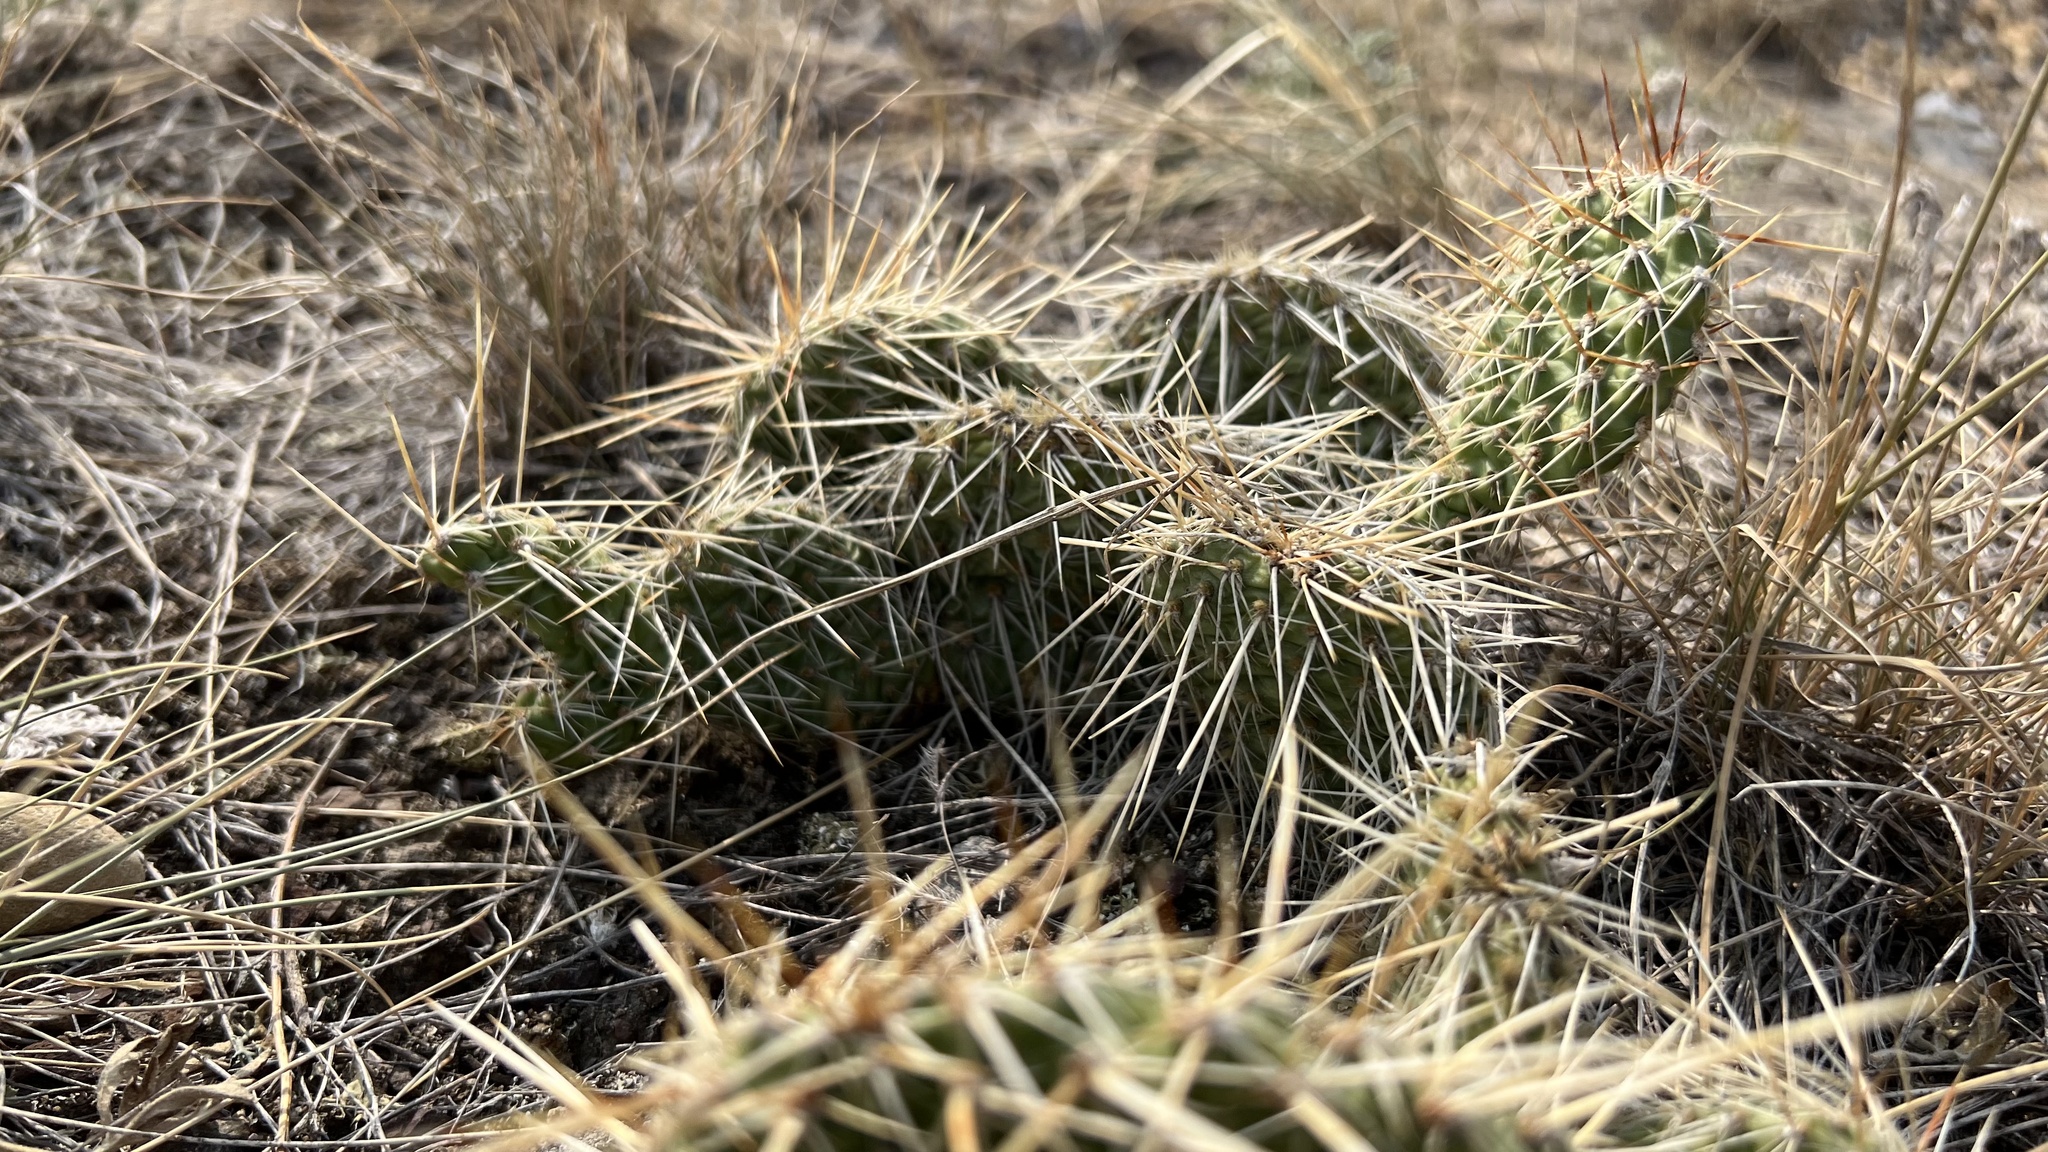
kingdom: Plantae
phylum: Tracheophyta
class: Magnoliopsida
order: Caryophyllales
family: Cactaceae
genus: Opuntia
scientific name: Opuntia polyacantha
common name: Plains prickly-pear
